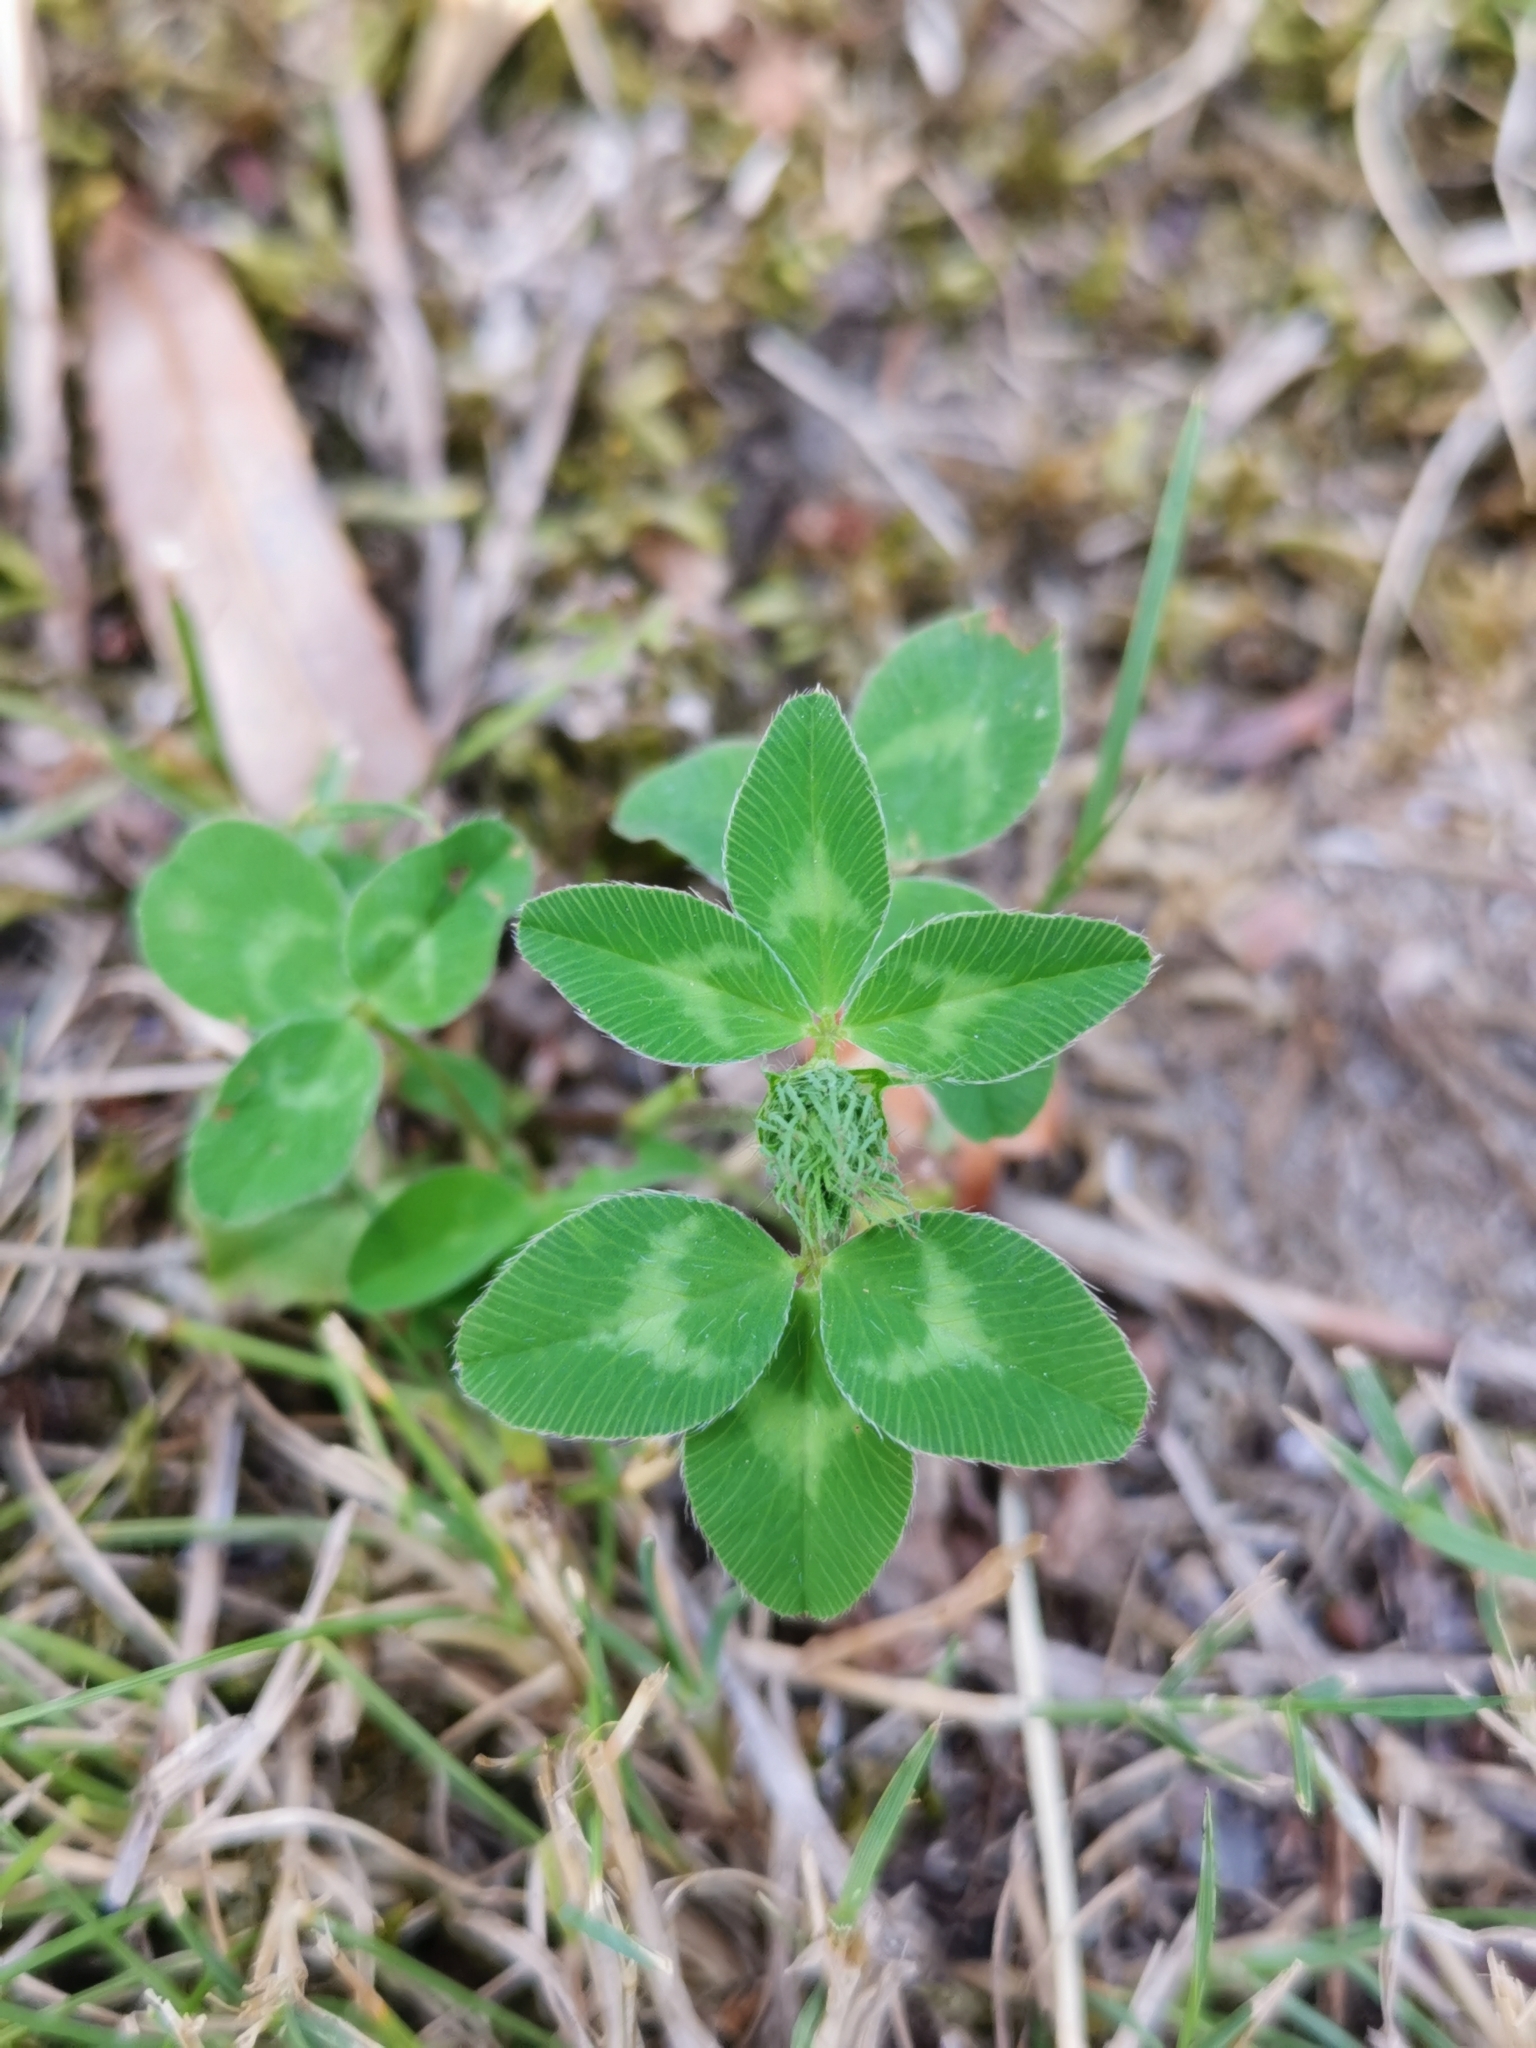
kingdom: Plantae
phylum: Tracheophyta
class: Magnoliopsida
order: Fabales
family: Fabaceae
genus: Trifolium
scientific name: Trifolium pratense
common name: Red clover
